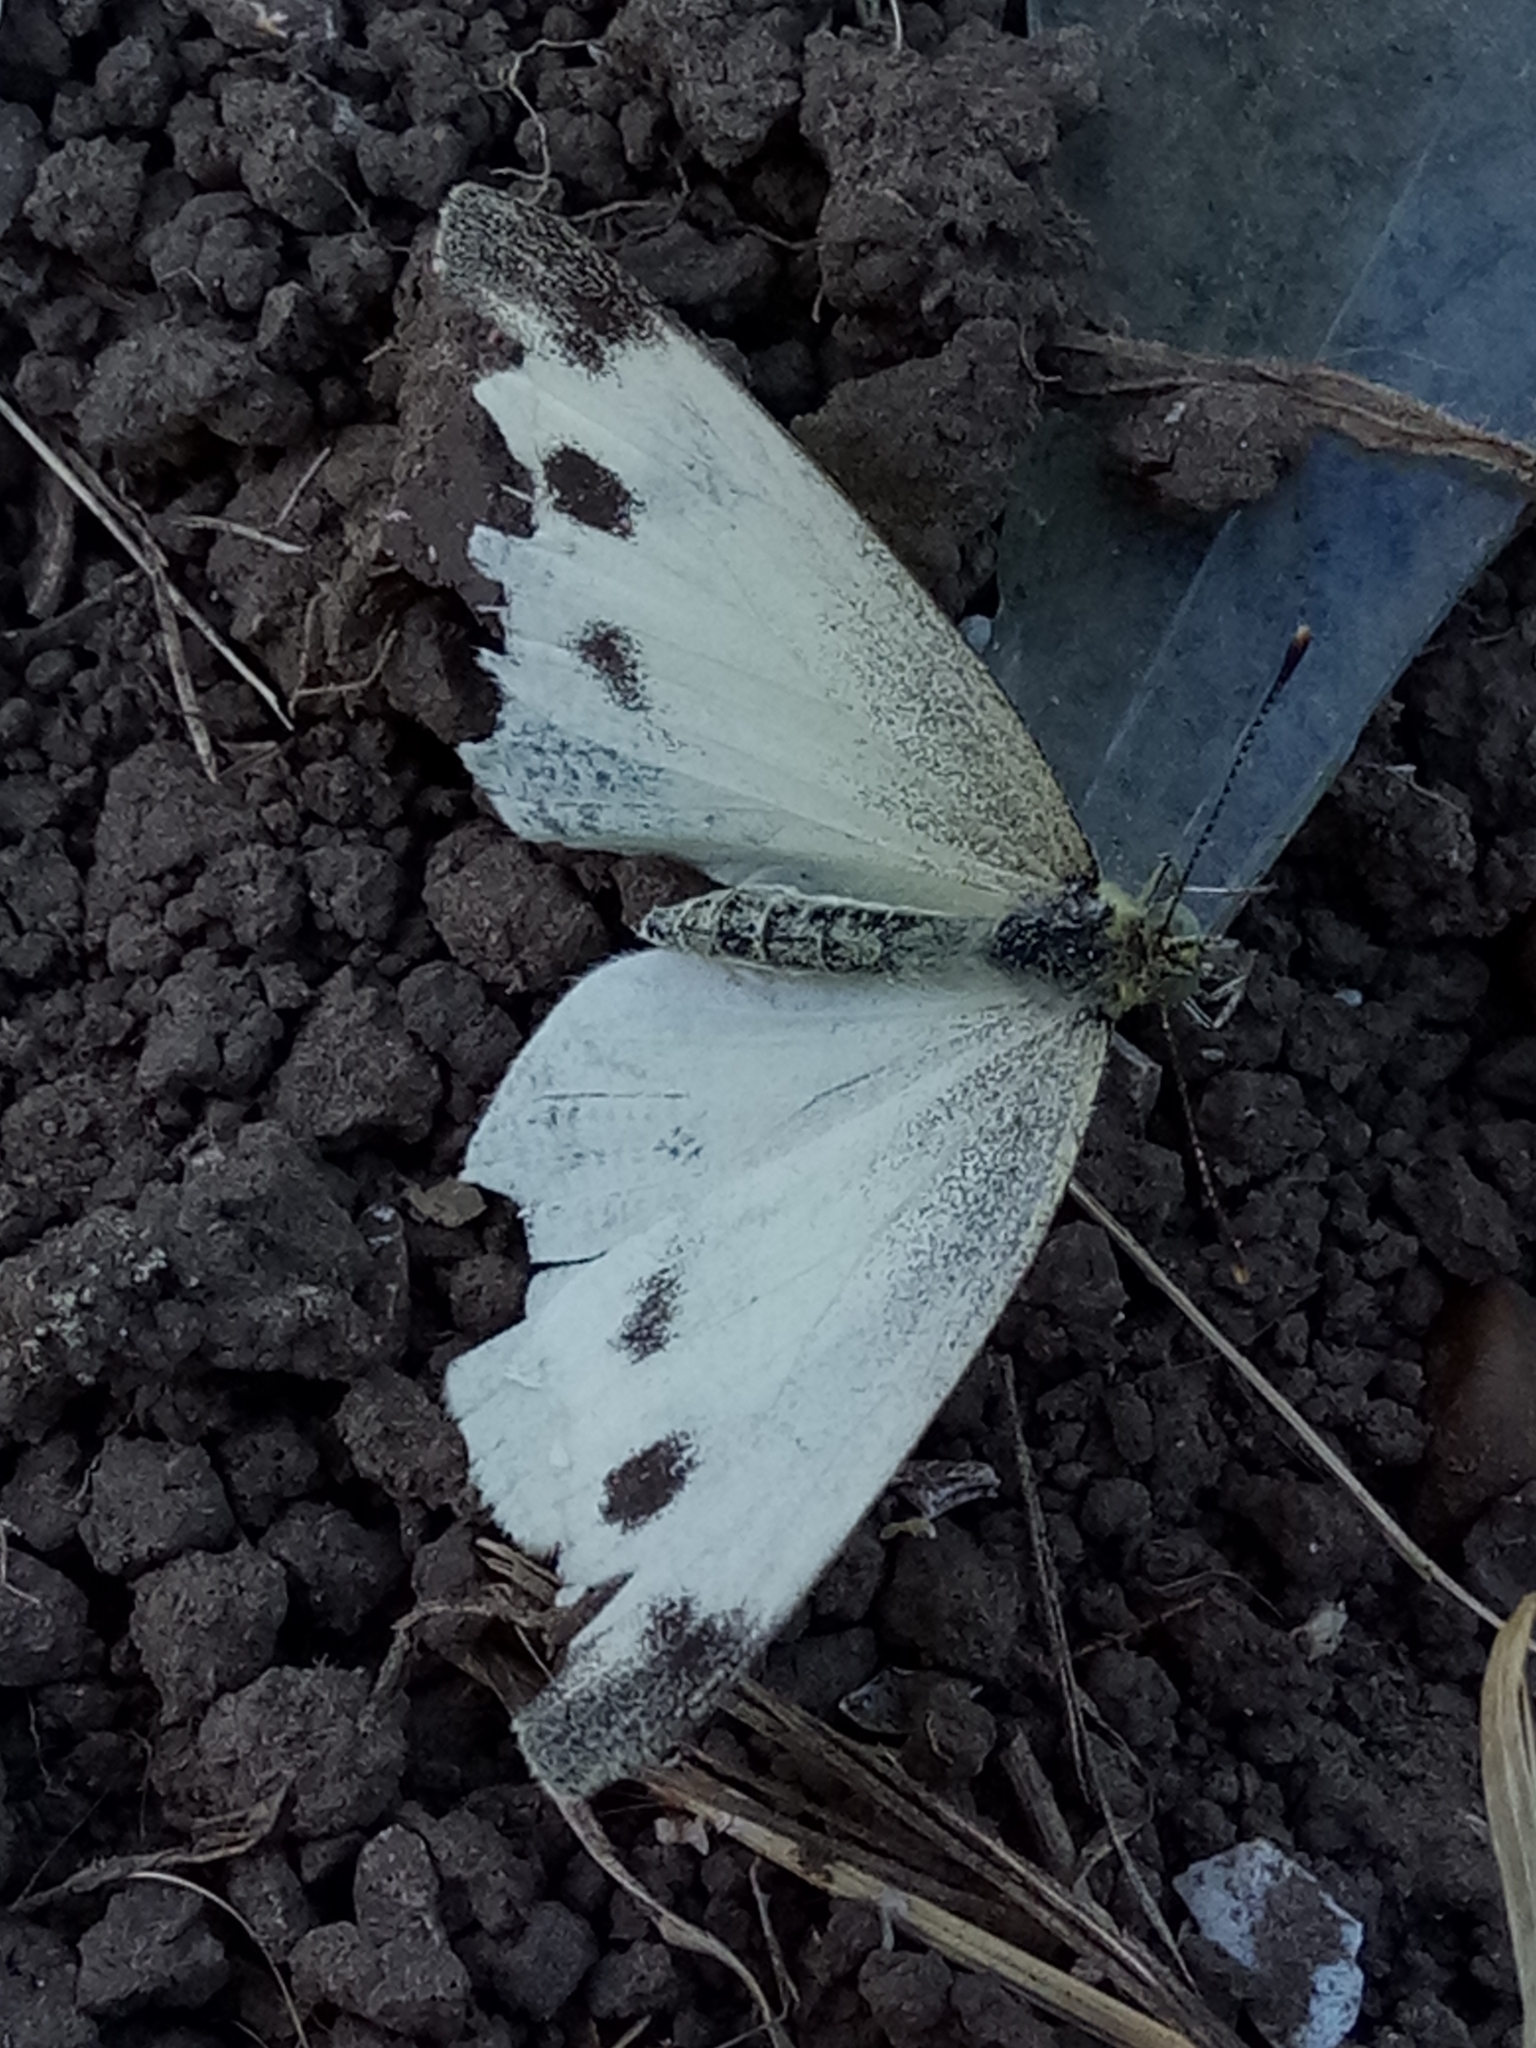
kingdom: Animalia
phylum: Arthropoda
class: Insecta
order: Lepidoptera
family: Pieridae
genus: Pieris
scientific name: Pieris napi
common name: Green-veined white
